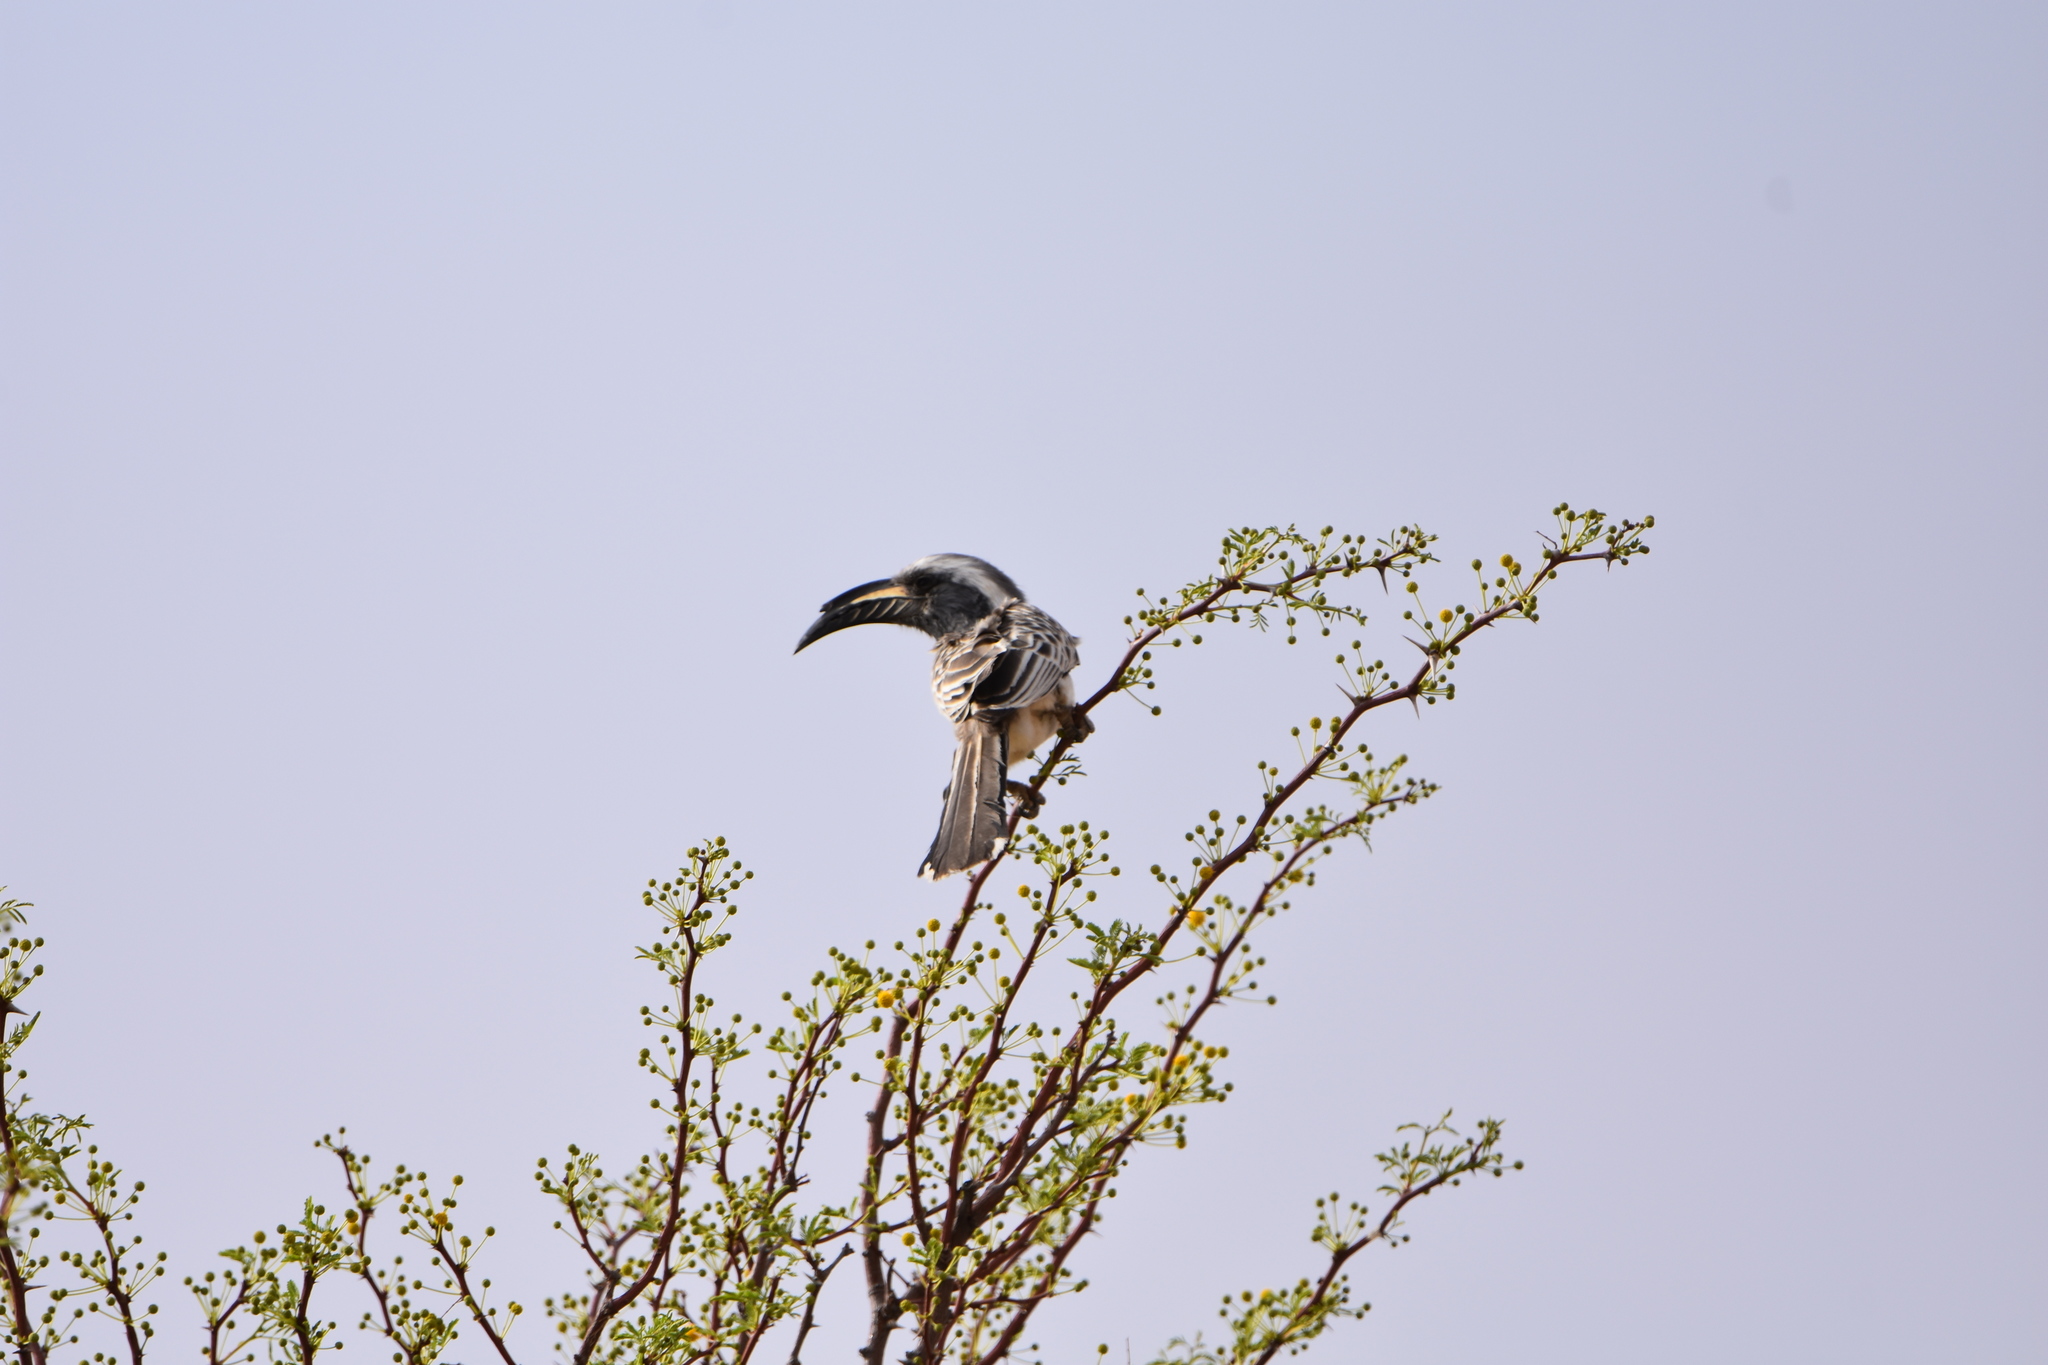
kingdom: Animalia
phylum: Chordata
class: Aves
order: Bucerotiformes
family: Bucerotidae
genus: Lophoceros
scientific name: Lophoceros nasutus
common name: African grey hornbill
